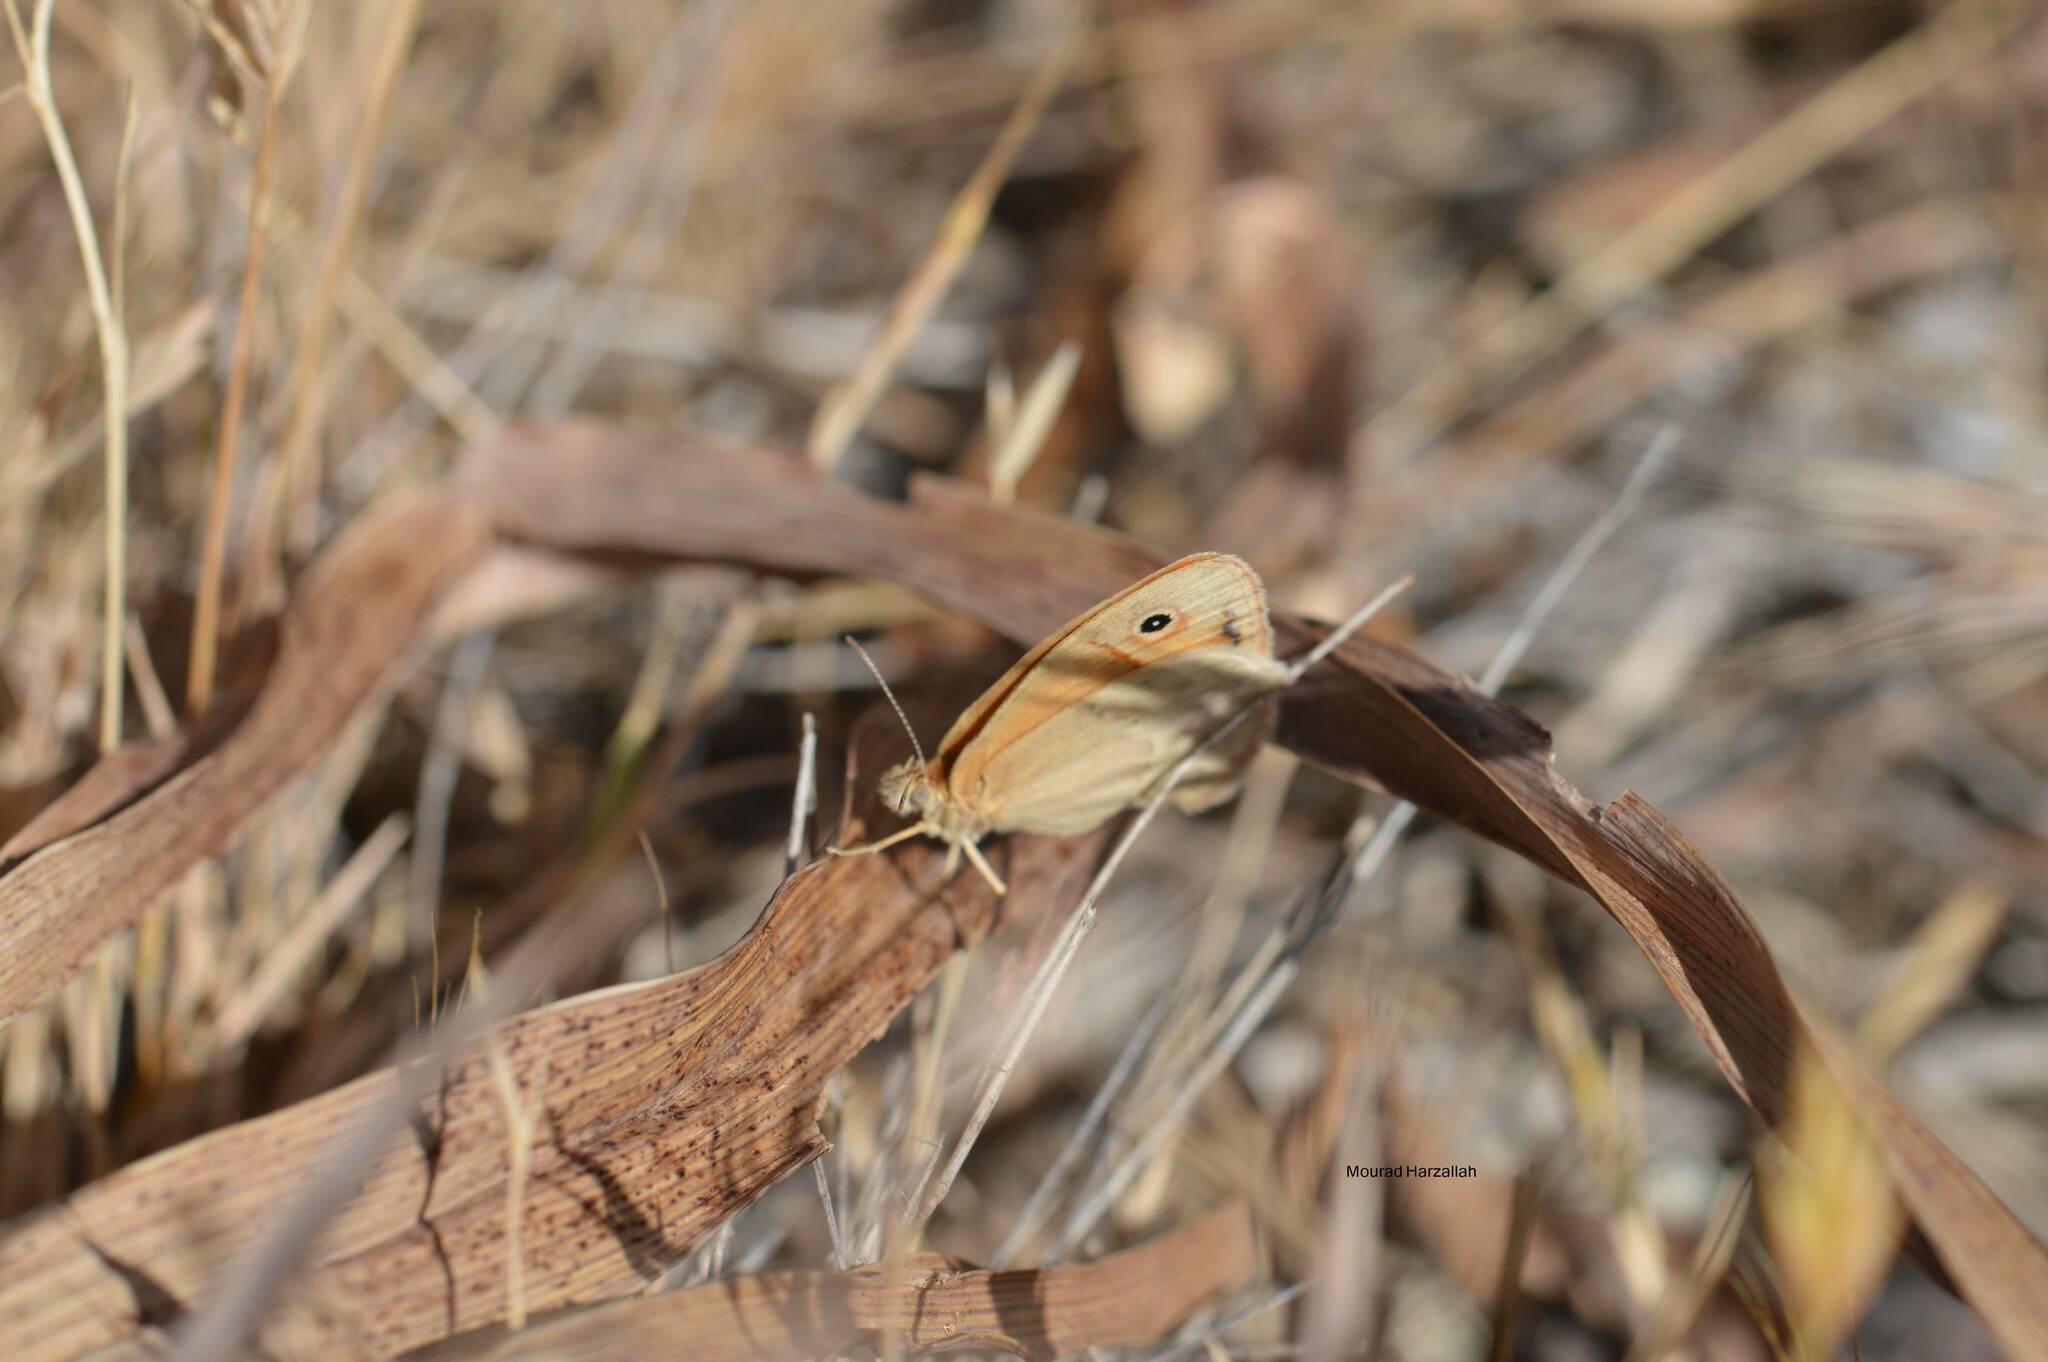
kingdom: Animalia
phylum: Arthropoda
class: Insecta
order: Lepidoptera
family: Nymphalidae
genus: Coenonympha
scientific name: Coenonympha pamphilus
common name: Small heath
